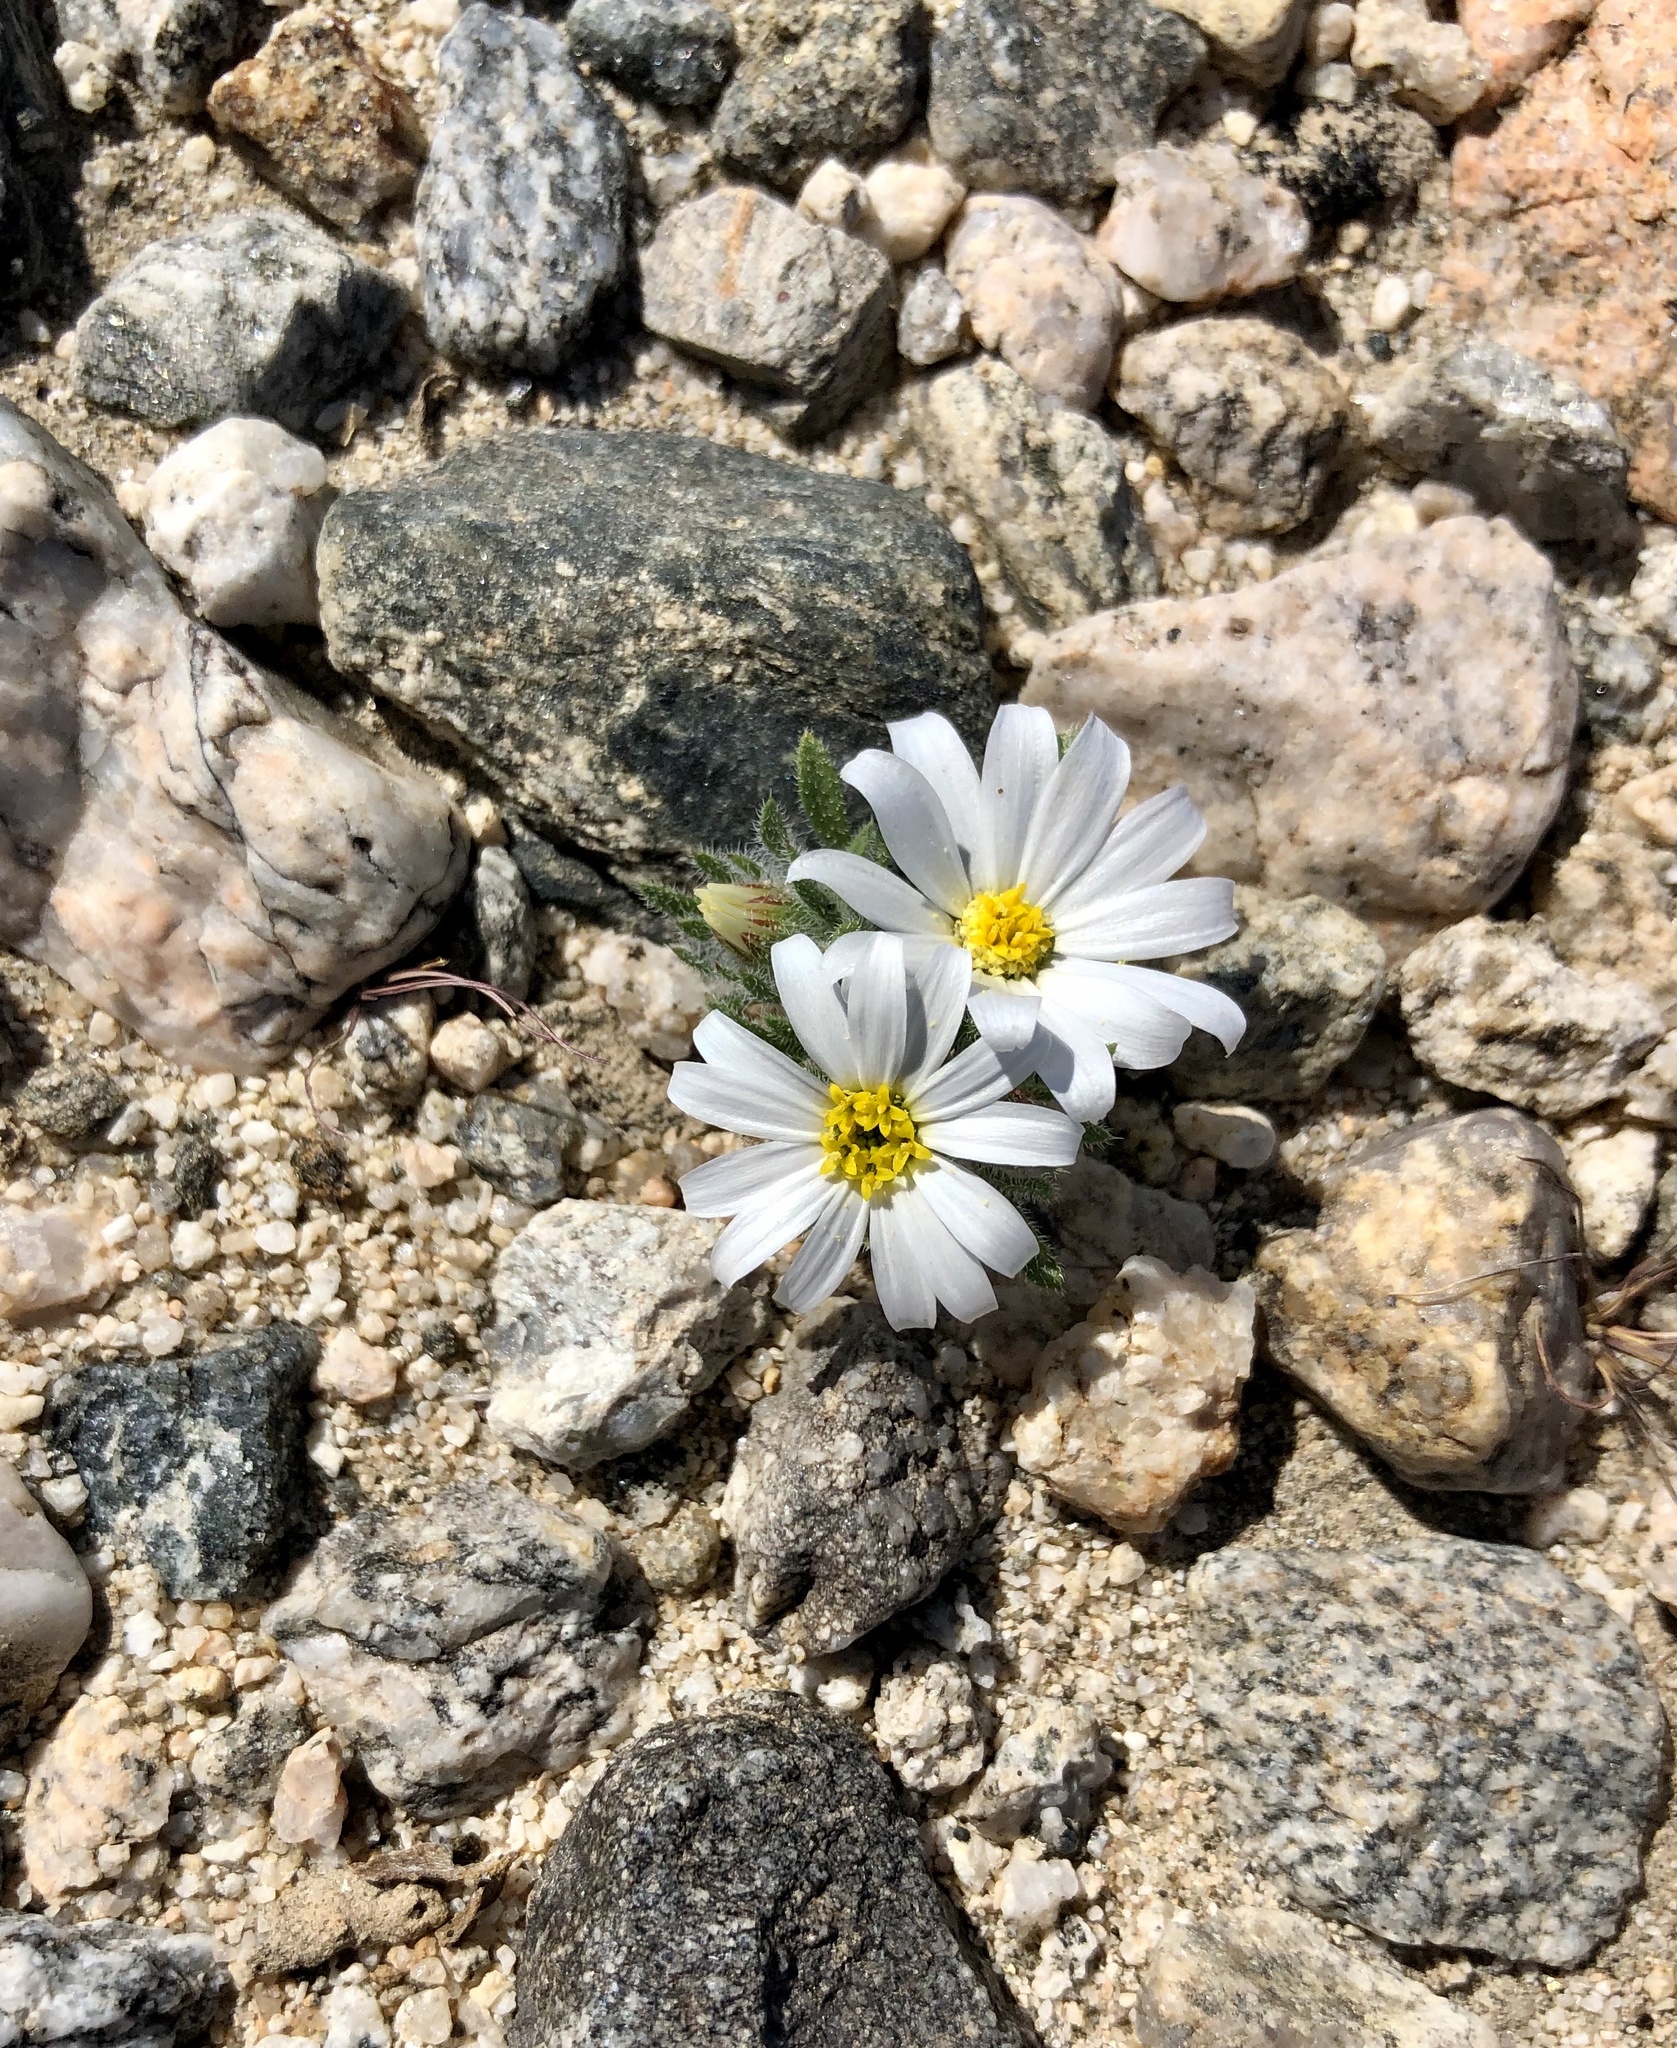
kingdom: Plantae
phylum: Tracheophyta
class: Magnoliopsida
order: Asterales
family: Asteraceae
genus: Monoptilon
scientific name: Monoptilon bellioides
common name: Bristly desertstar
